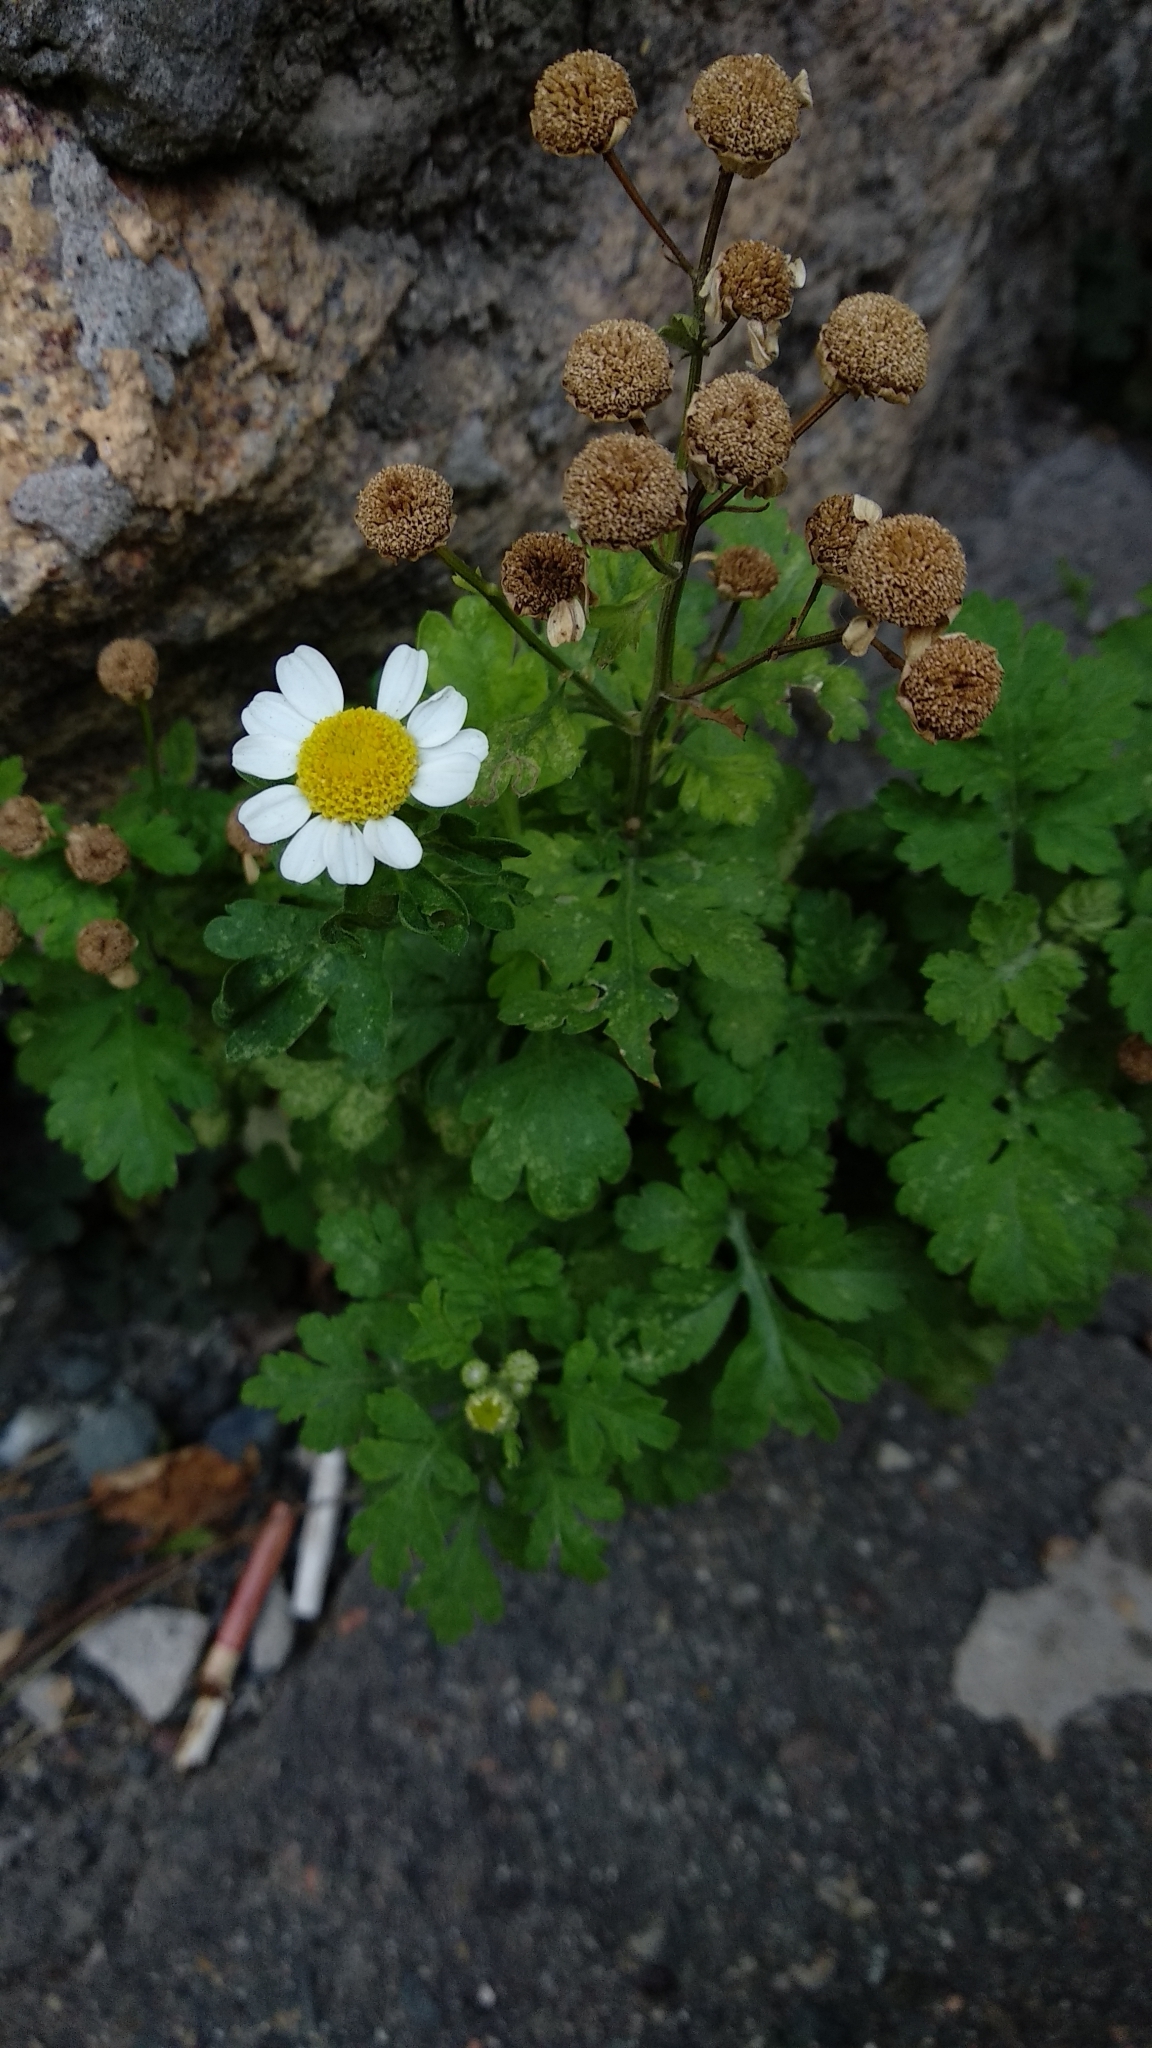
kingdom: Plantae
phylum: Tracheophyta
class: Magnoliopsida
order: Asterales
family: Asteraceae
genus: Tanacetum
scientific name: Tanacetum parthenium
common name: Feverfew
